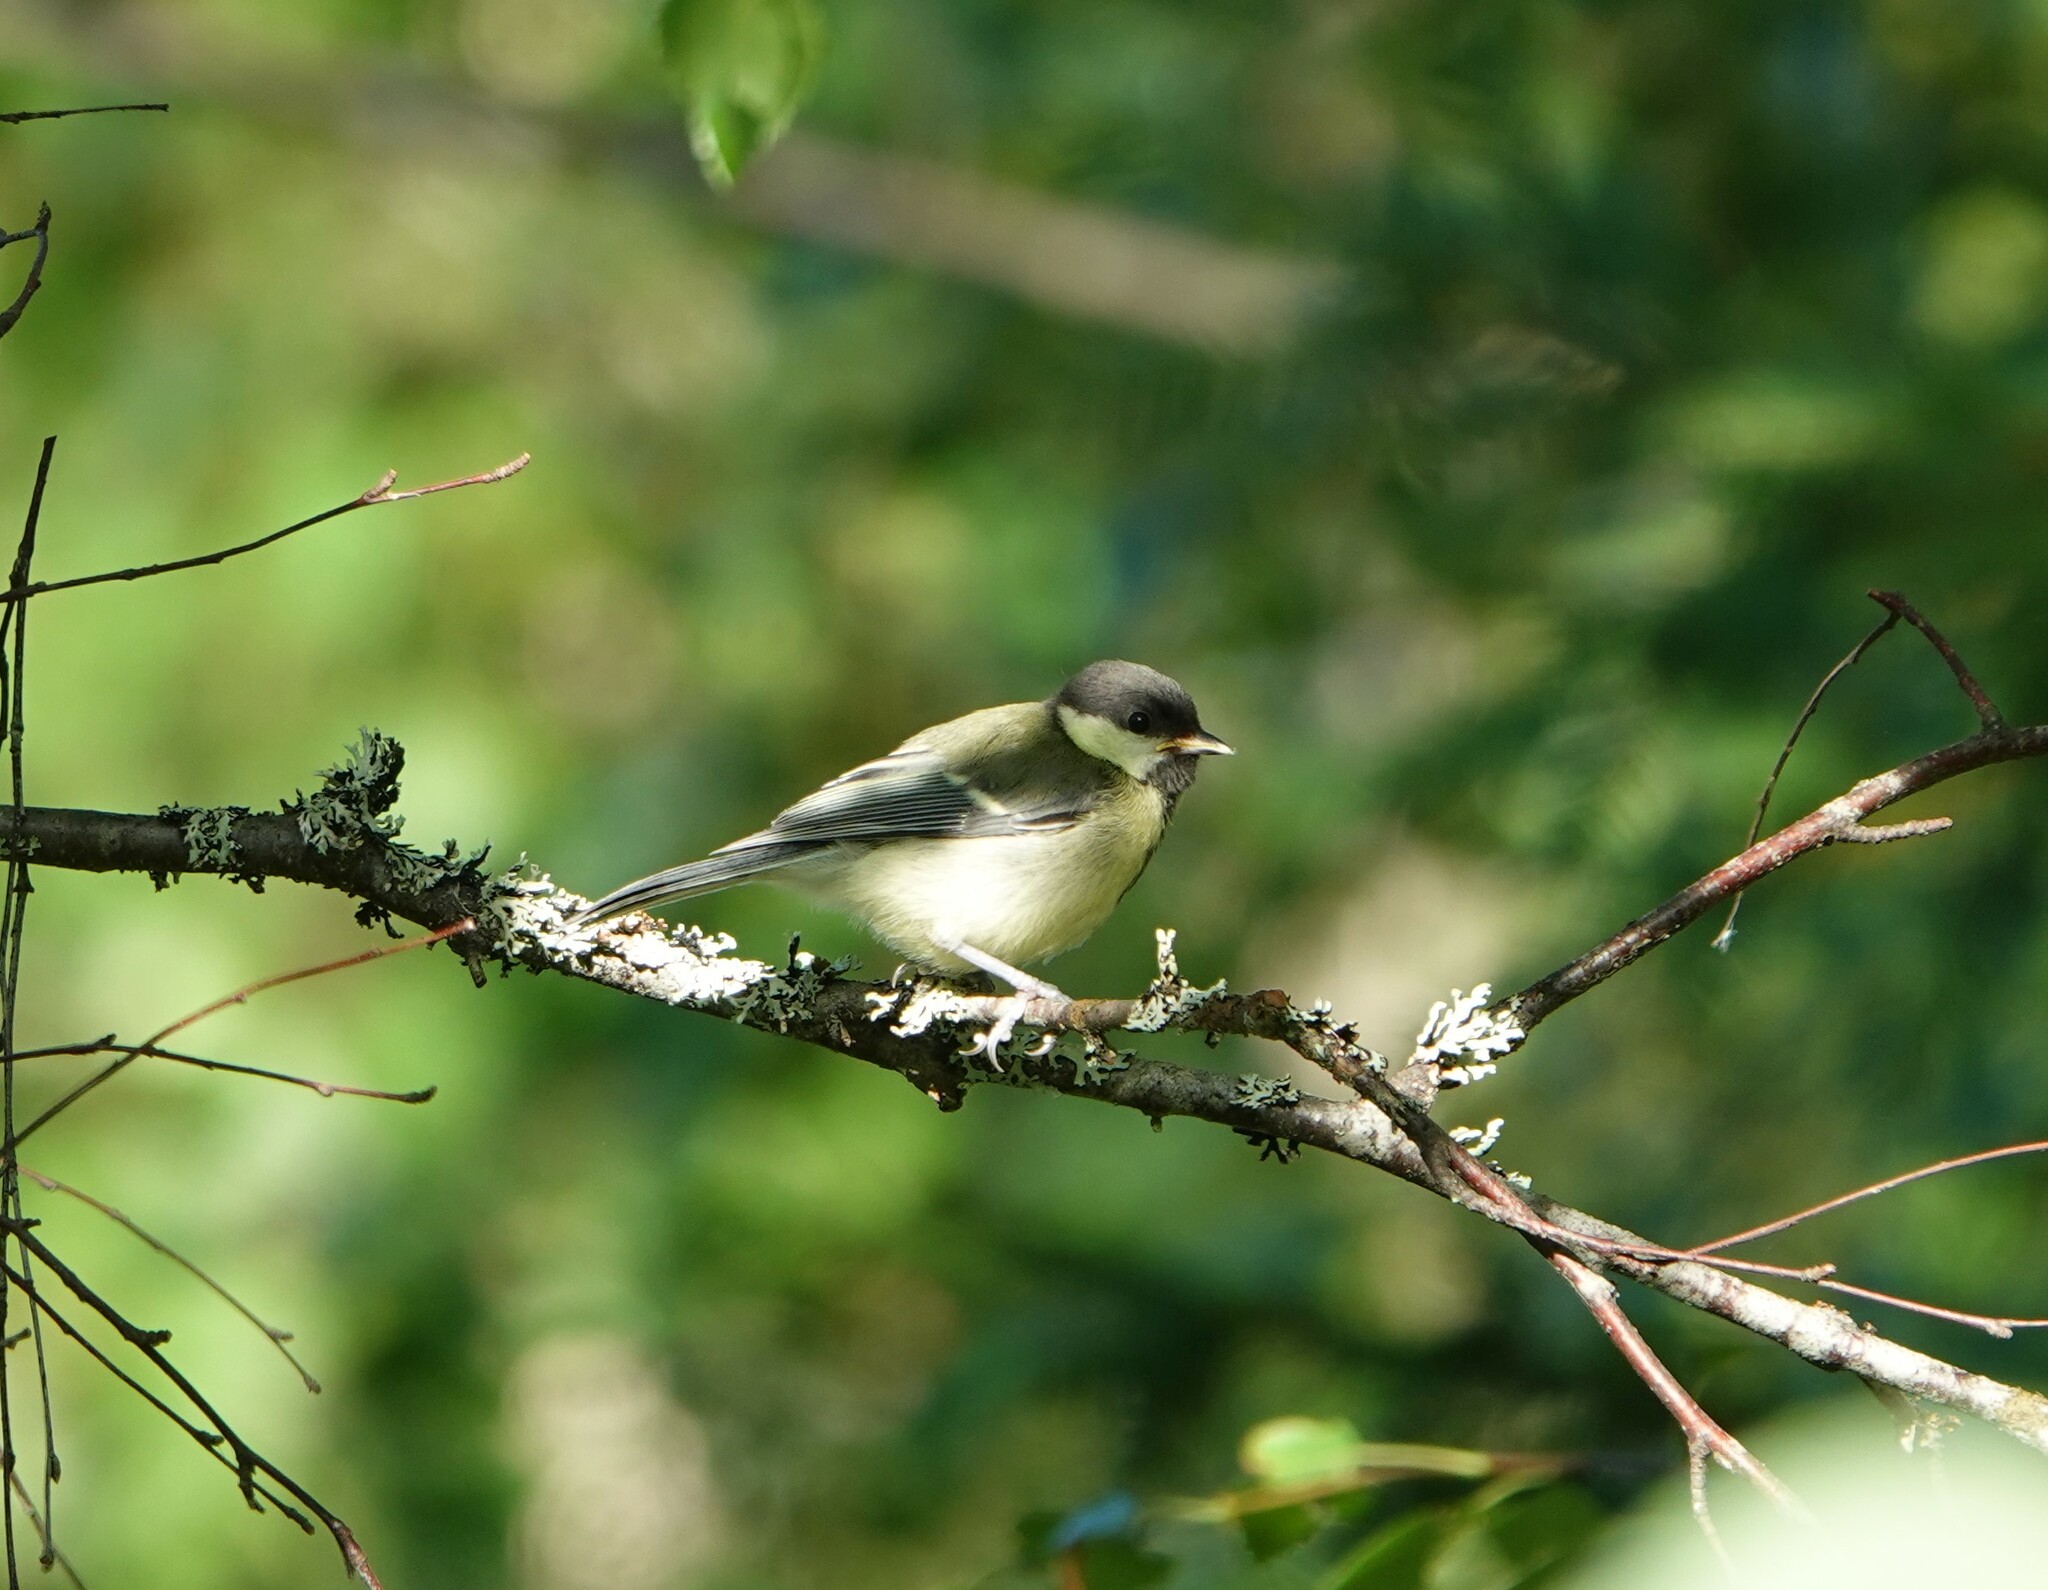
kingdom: Animalia
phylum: Chordata
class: Aves
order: Passeriformes
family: Paridae
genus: Parus
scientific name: Parus major
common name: Great tit
